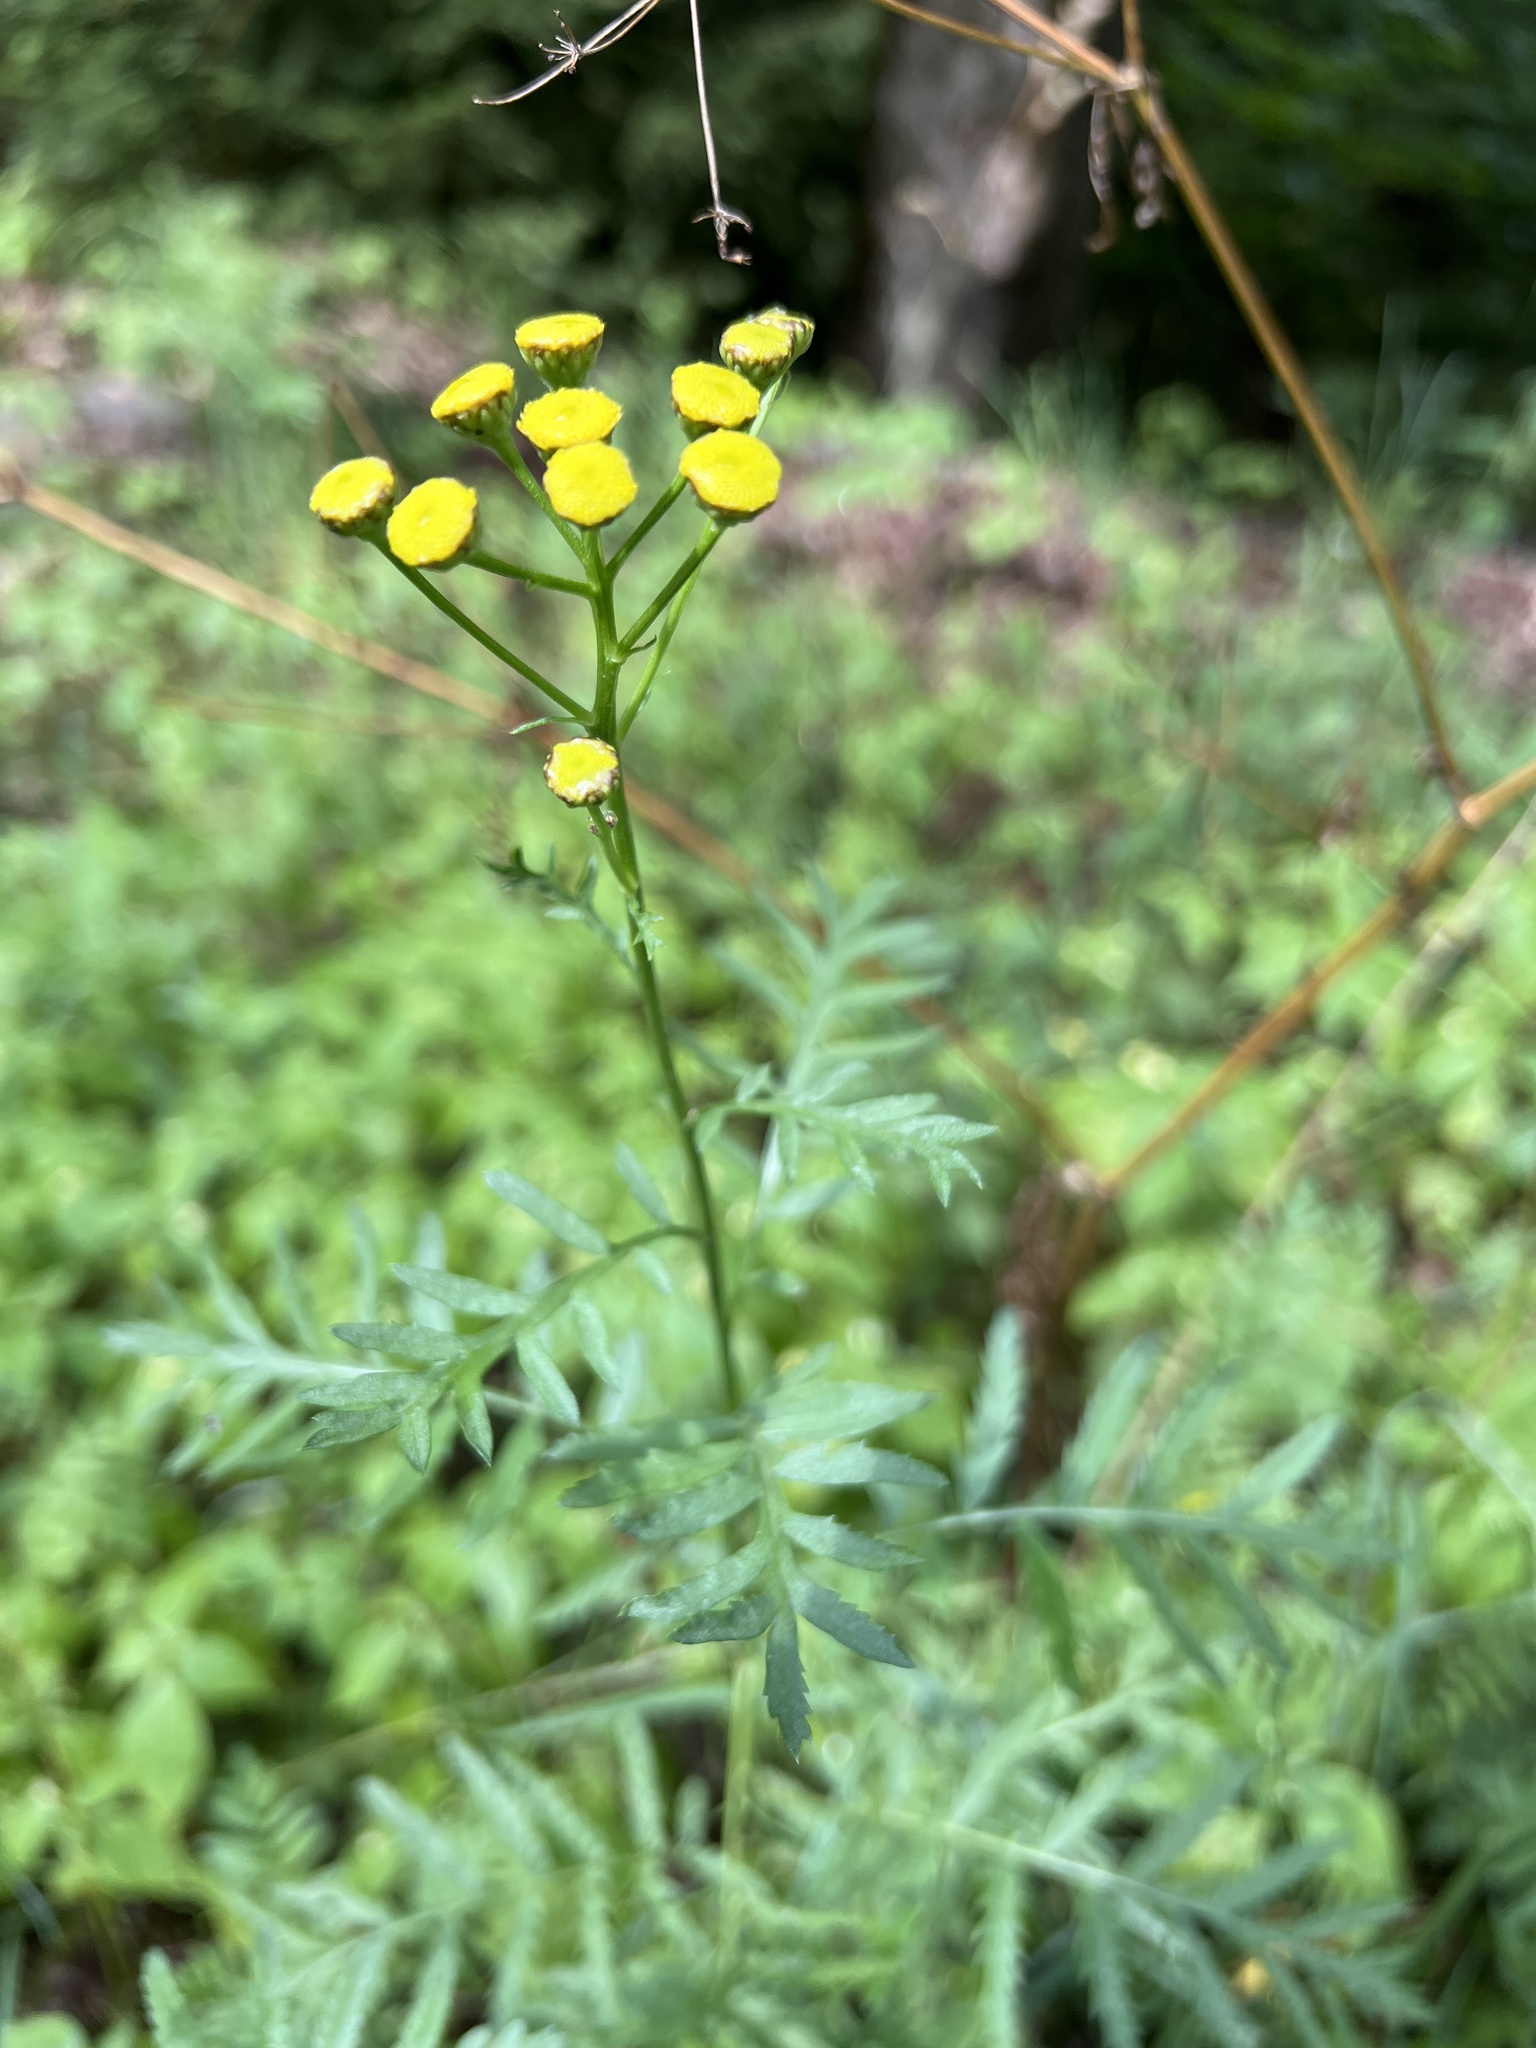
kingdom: Plantae
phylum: Tracheophyta
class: Magnoliopsida
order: Asterales
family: Asteraceae
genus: Tanacetum
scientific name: Tanacetum vulgare
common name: Common tansy
